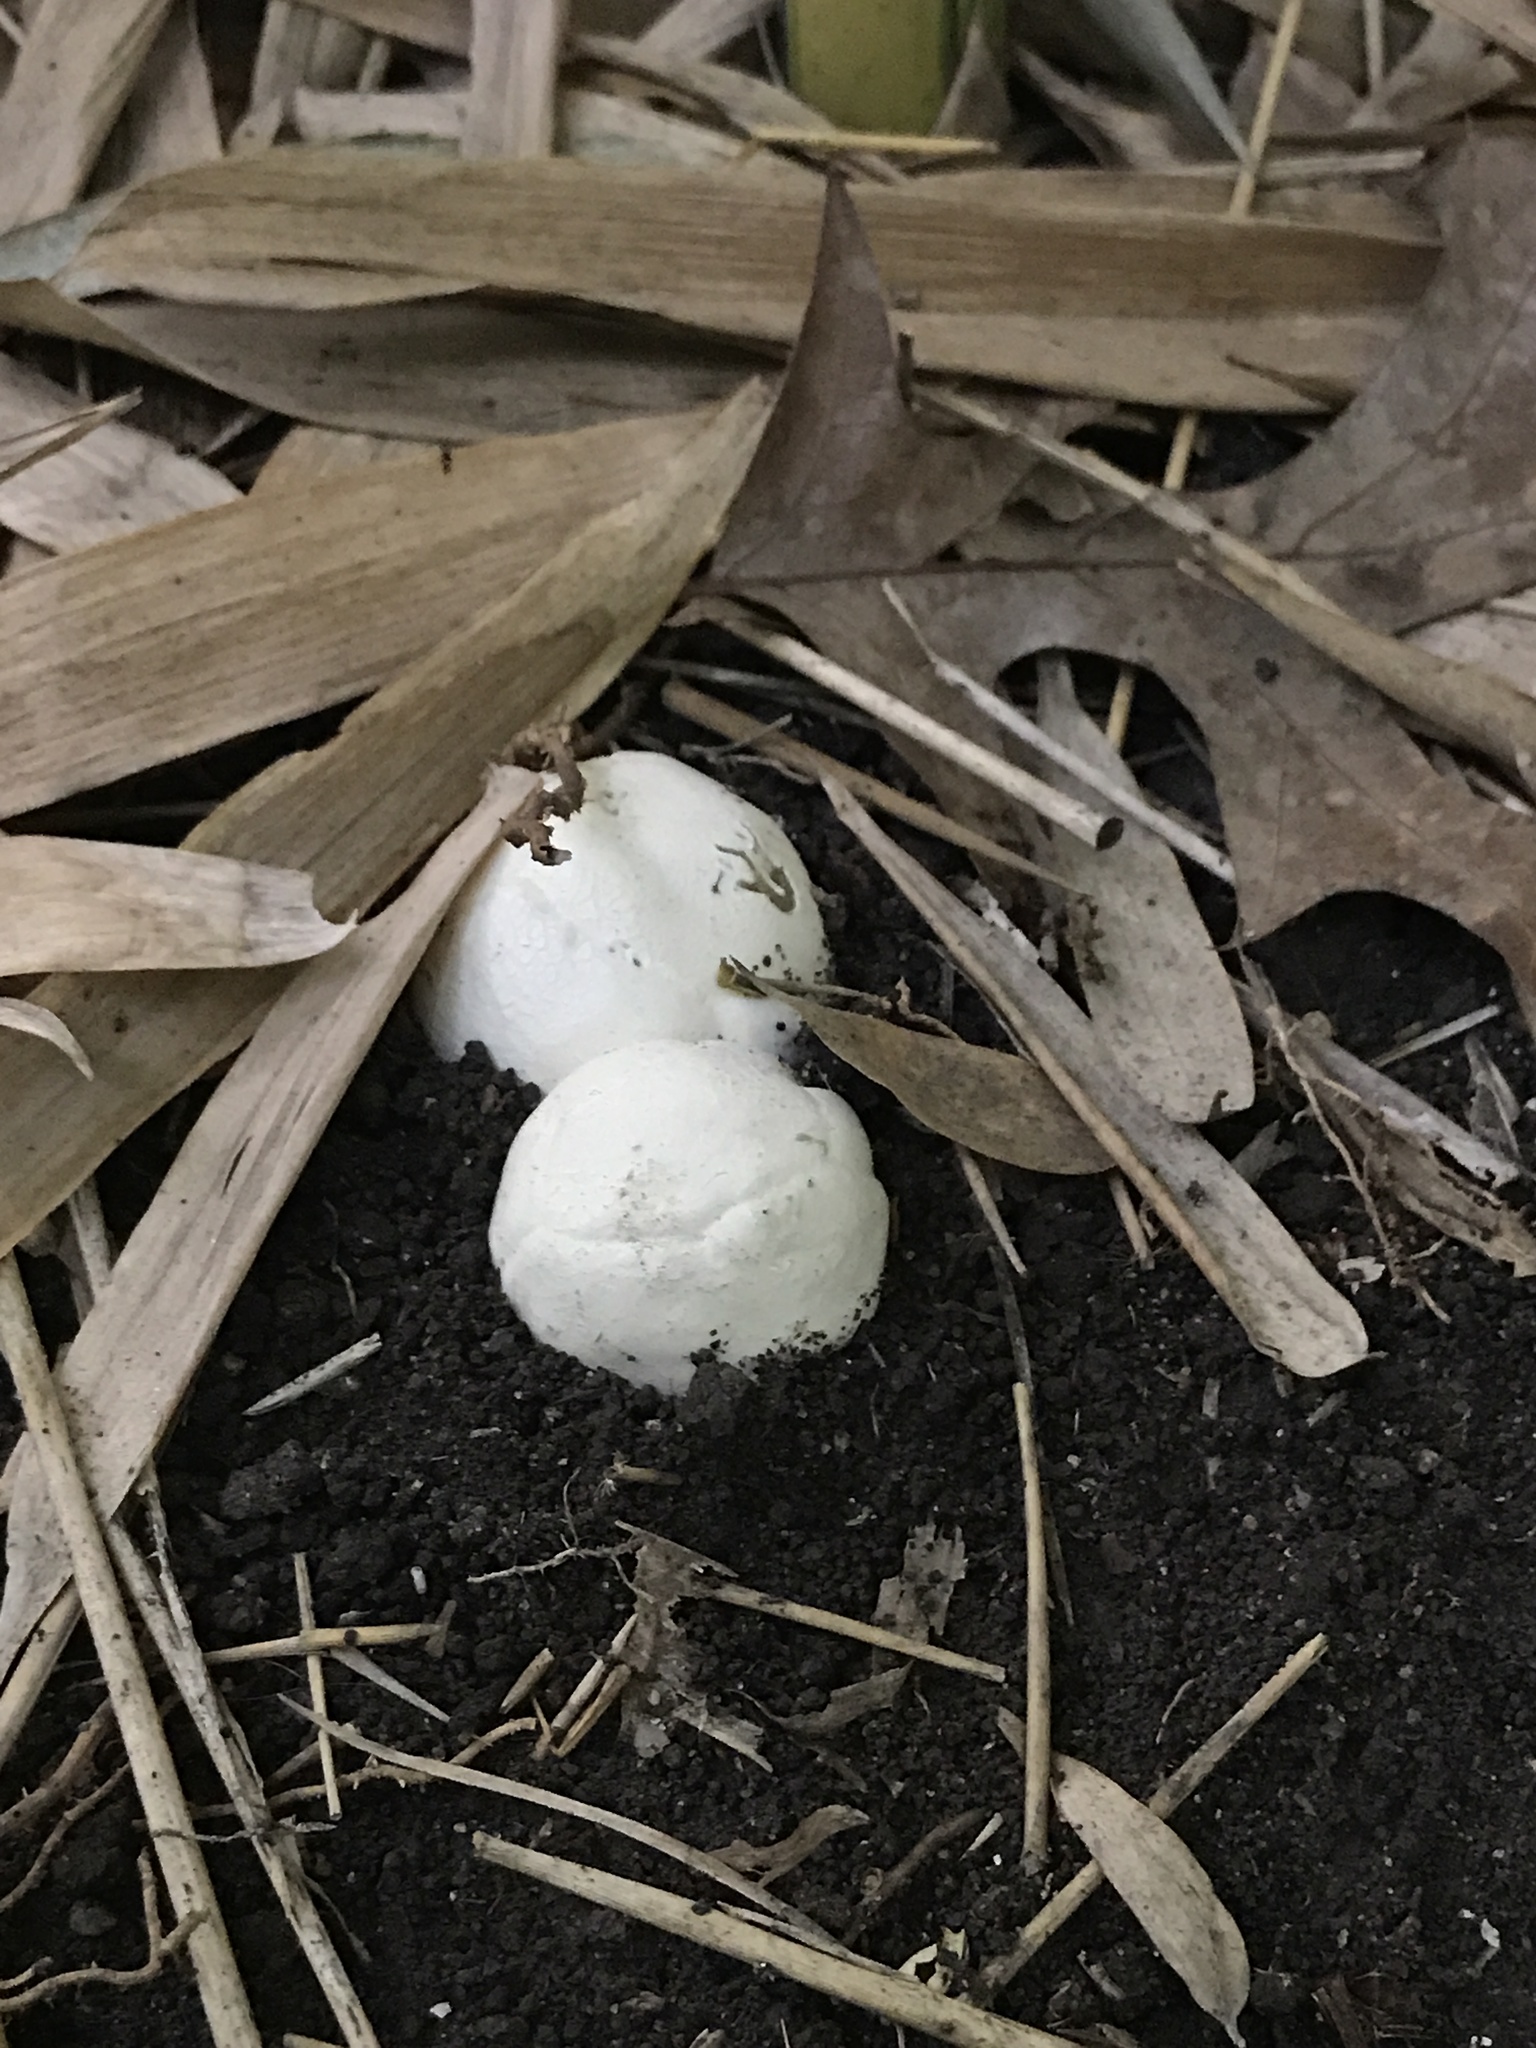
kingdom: Fungi
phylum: Basidiomycota
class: Agaricomycetes
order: Phallales
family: Phallaceae
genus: Lysurus
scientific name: Lysurus periphragmoides
